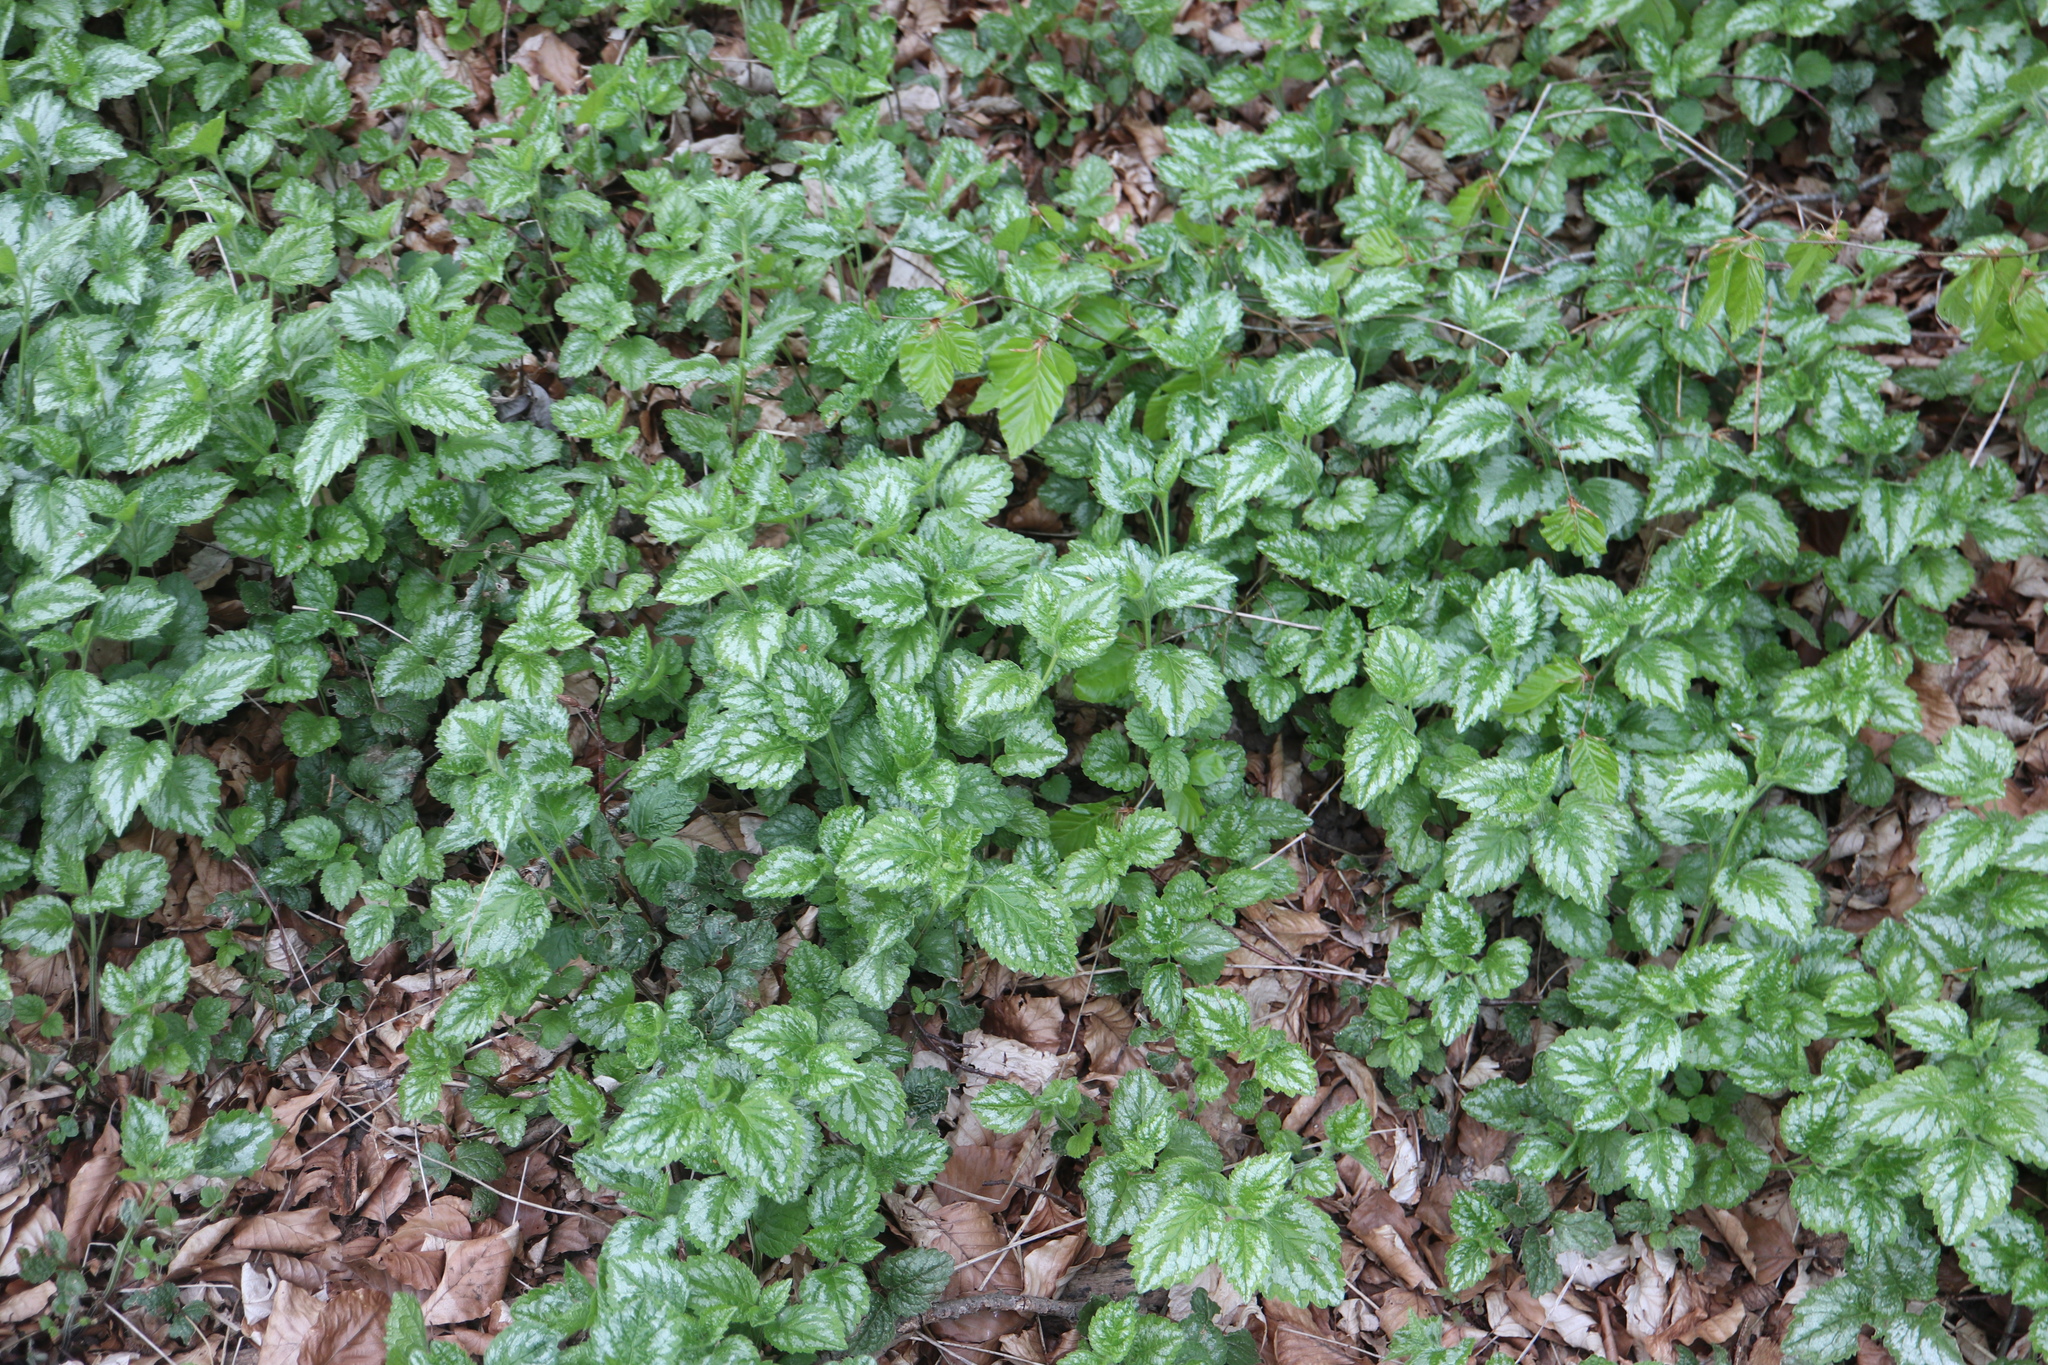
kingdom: Plantae
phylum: Tracheophyta
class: Magnoliopsida
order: Lamiales
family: Lamiaceae
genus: Lamium
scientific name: Lamium galeobdolon
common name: Yellow archangel
